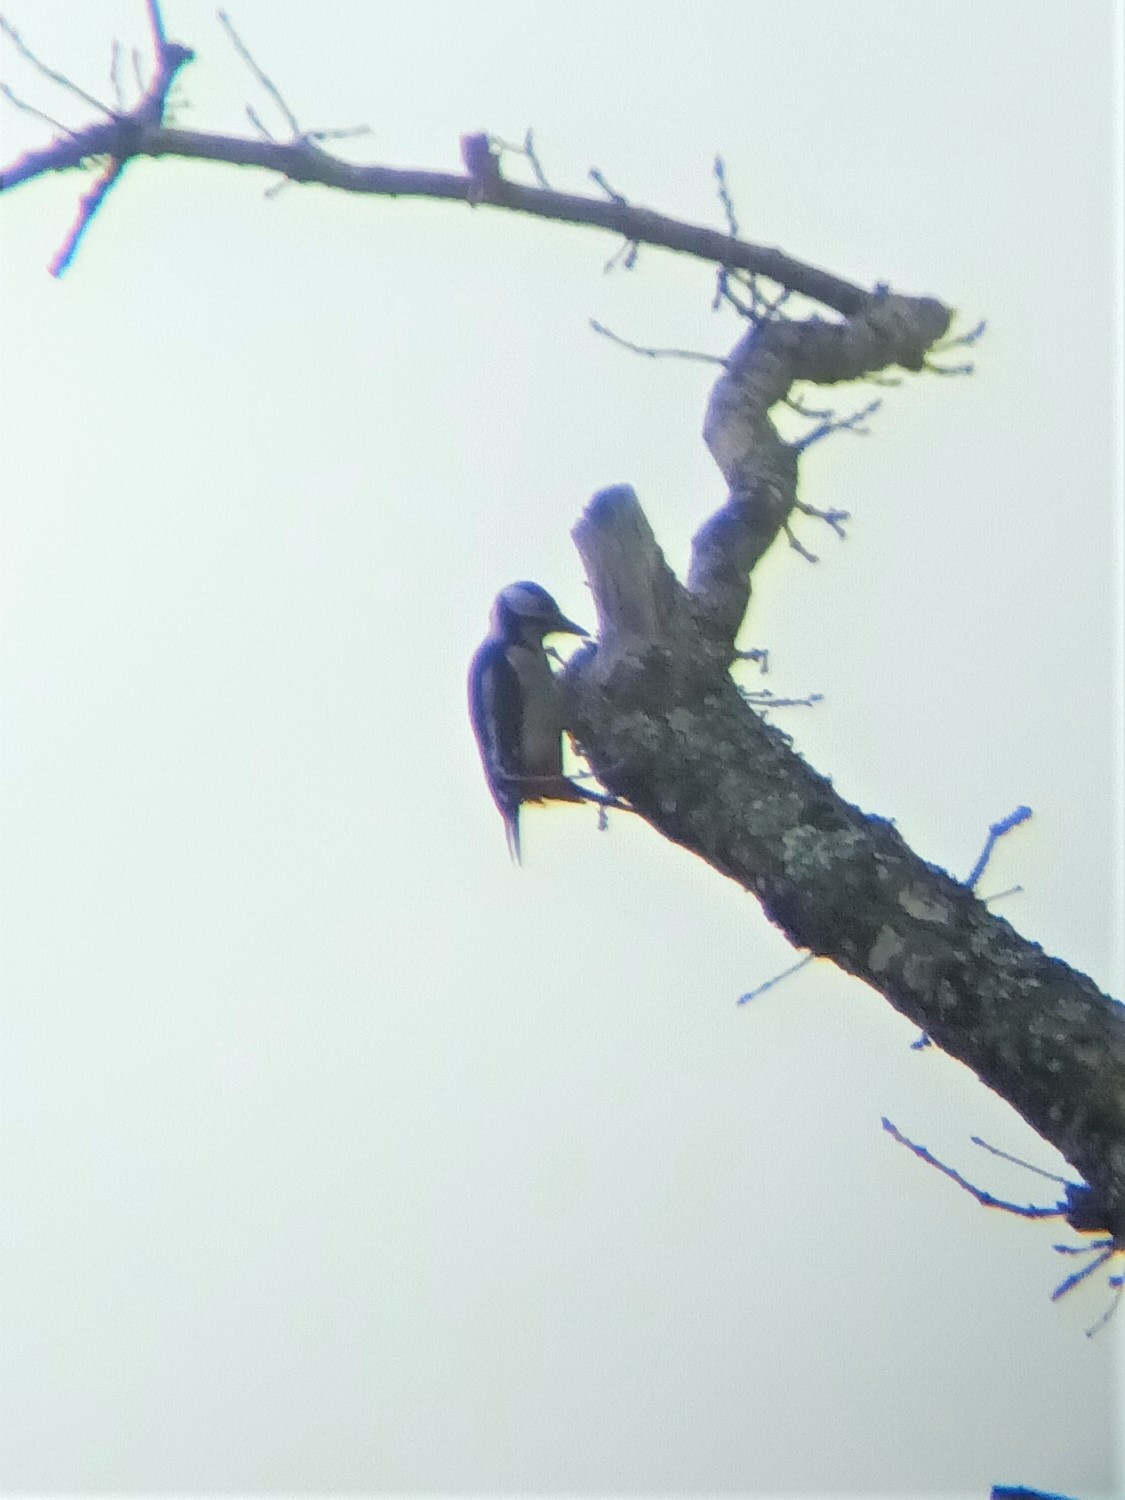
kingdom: Animalia
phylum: Chordata
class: Aves
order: Piciformes
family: Picidae
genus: Dendrocopos
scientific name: Dendrocopos major
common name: Great spotted woodpecker
